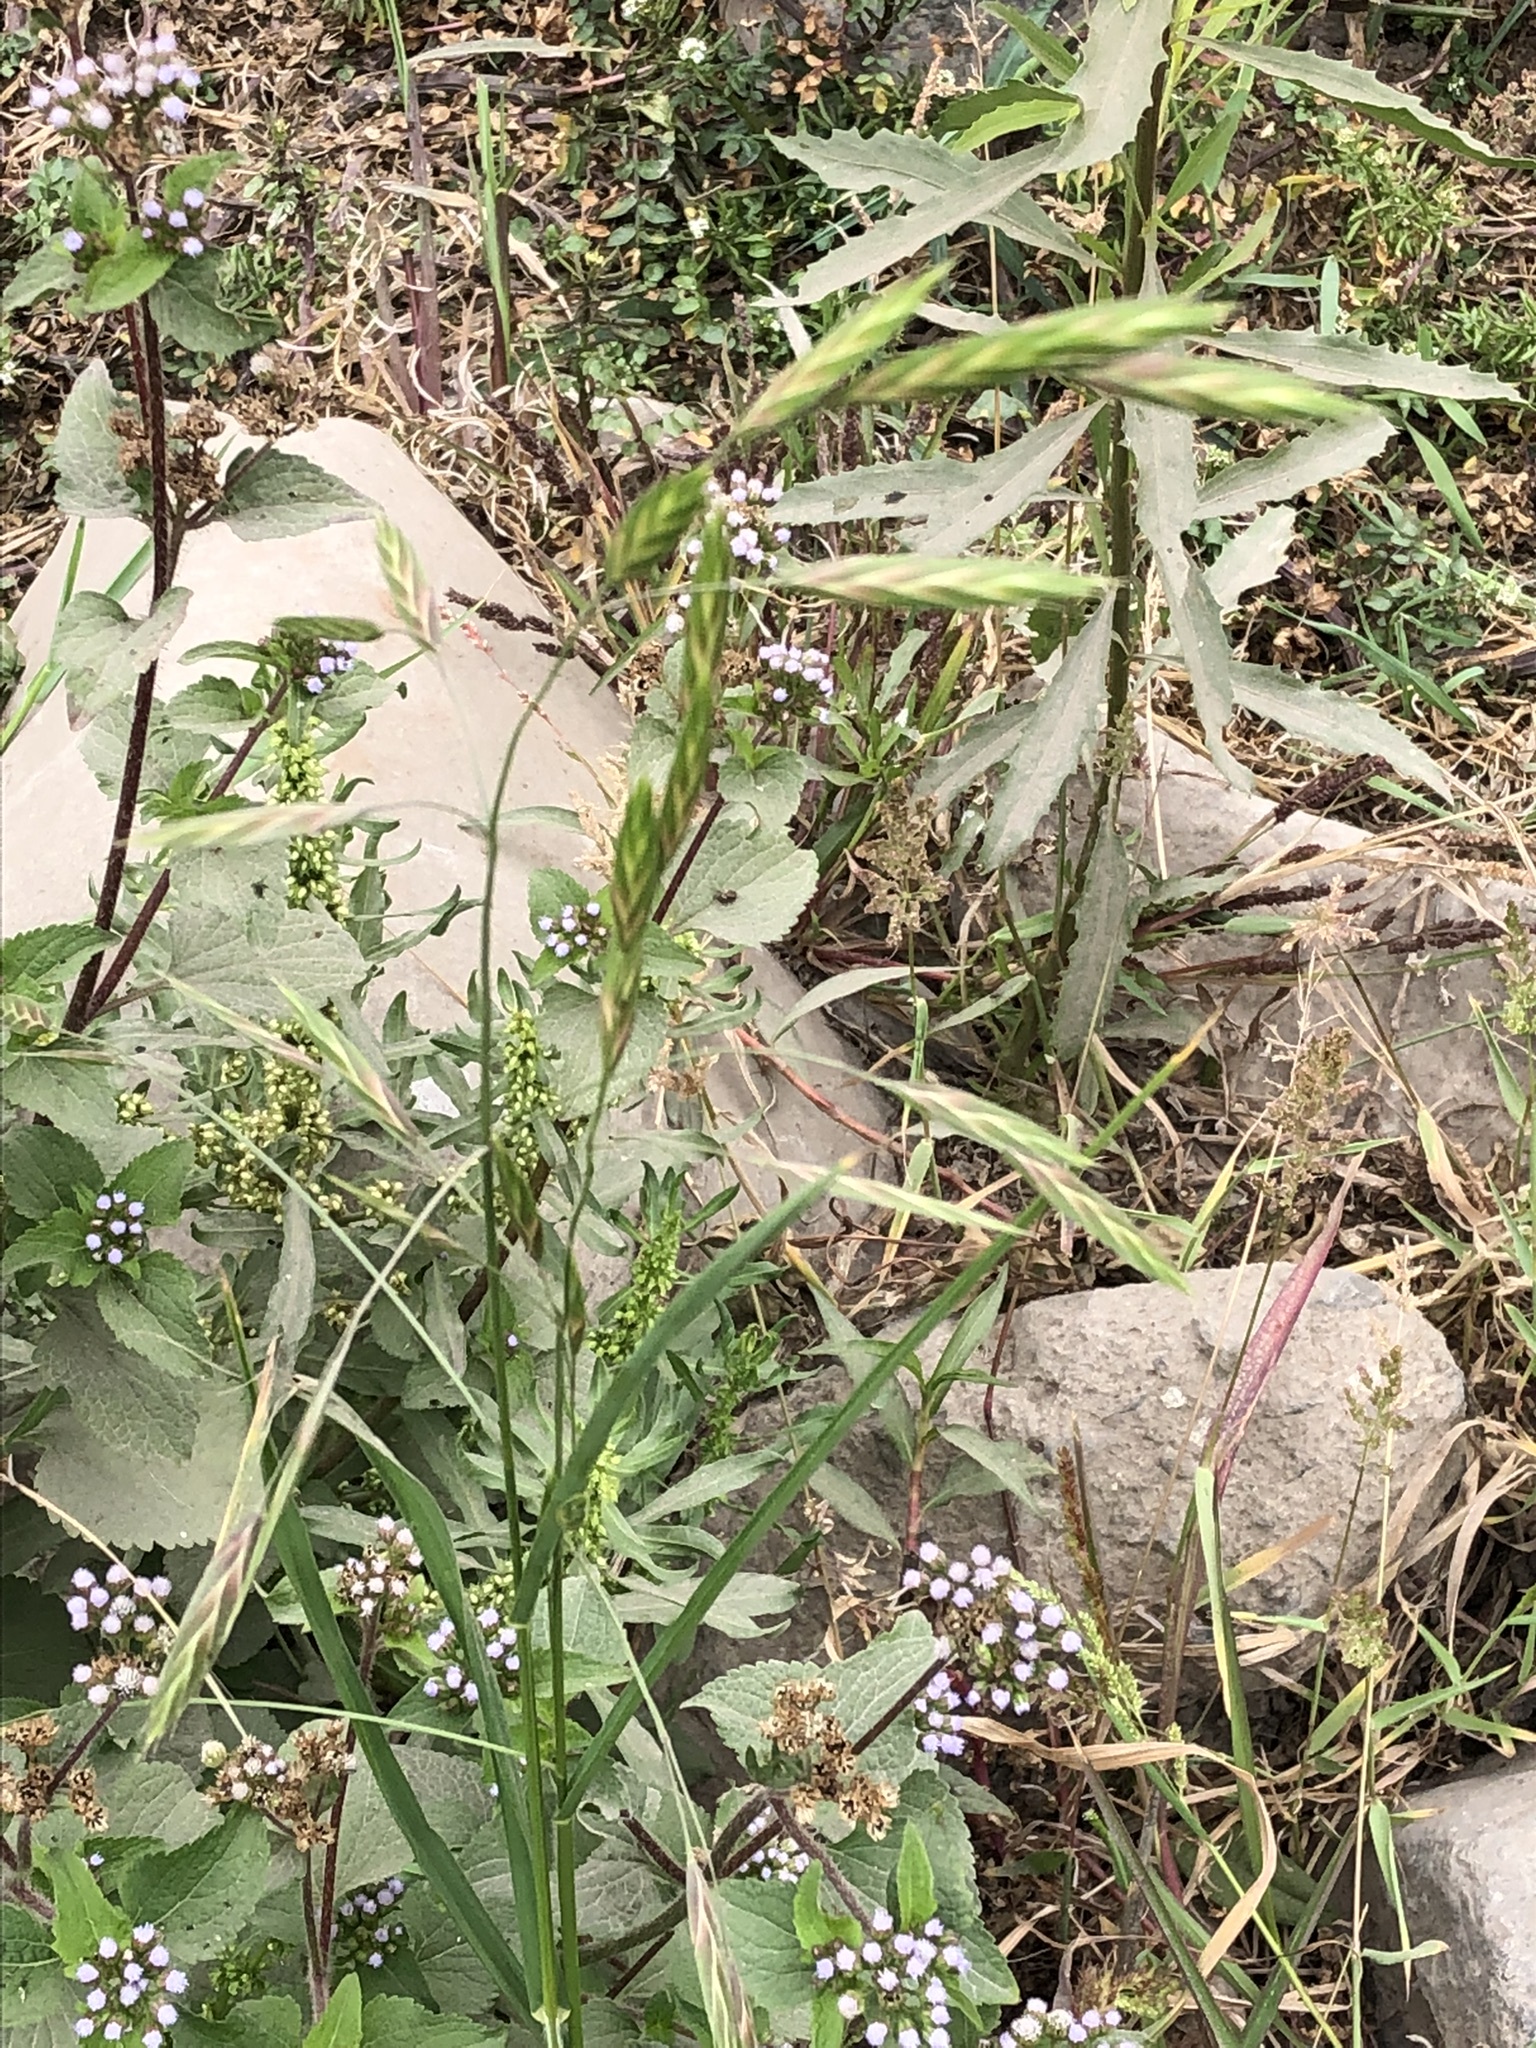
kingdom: Plantae
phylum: Tracheophyta
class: Liliopsida
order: Poales
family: Poaceae
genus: Bromus
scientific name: Bromus catharticus
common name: Rescuegrass
